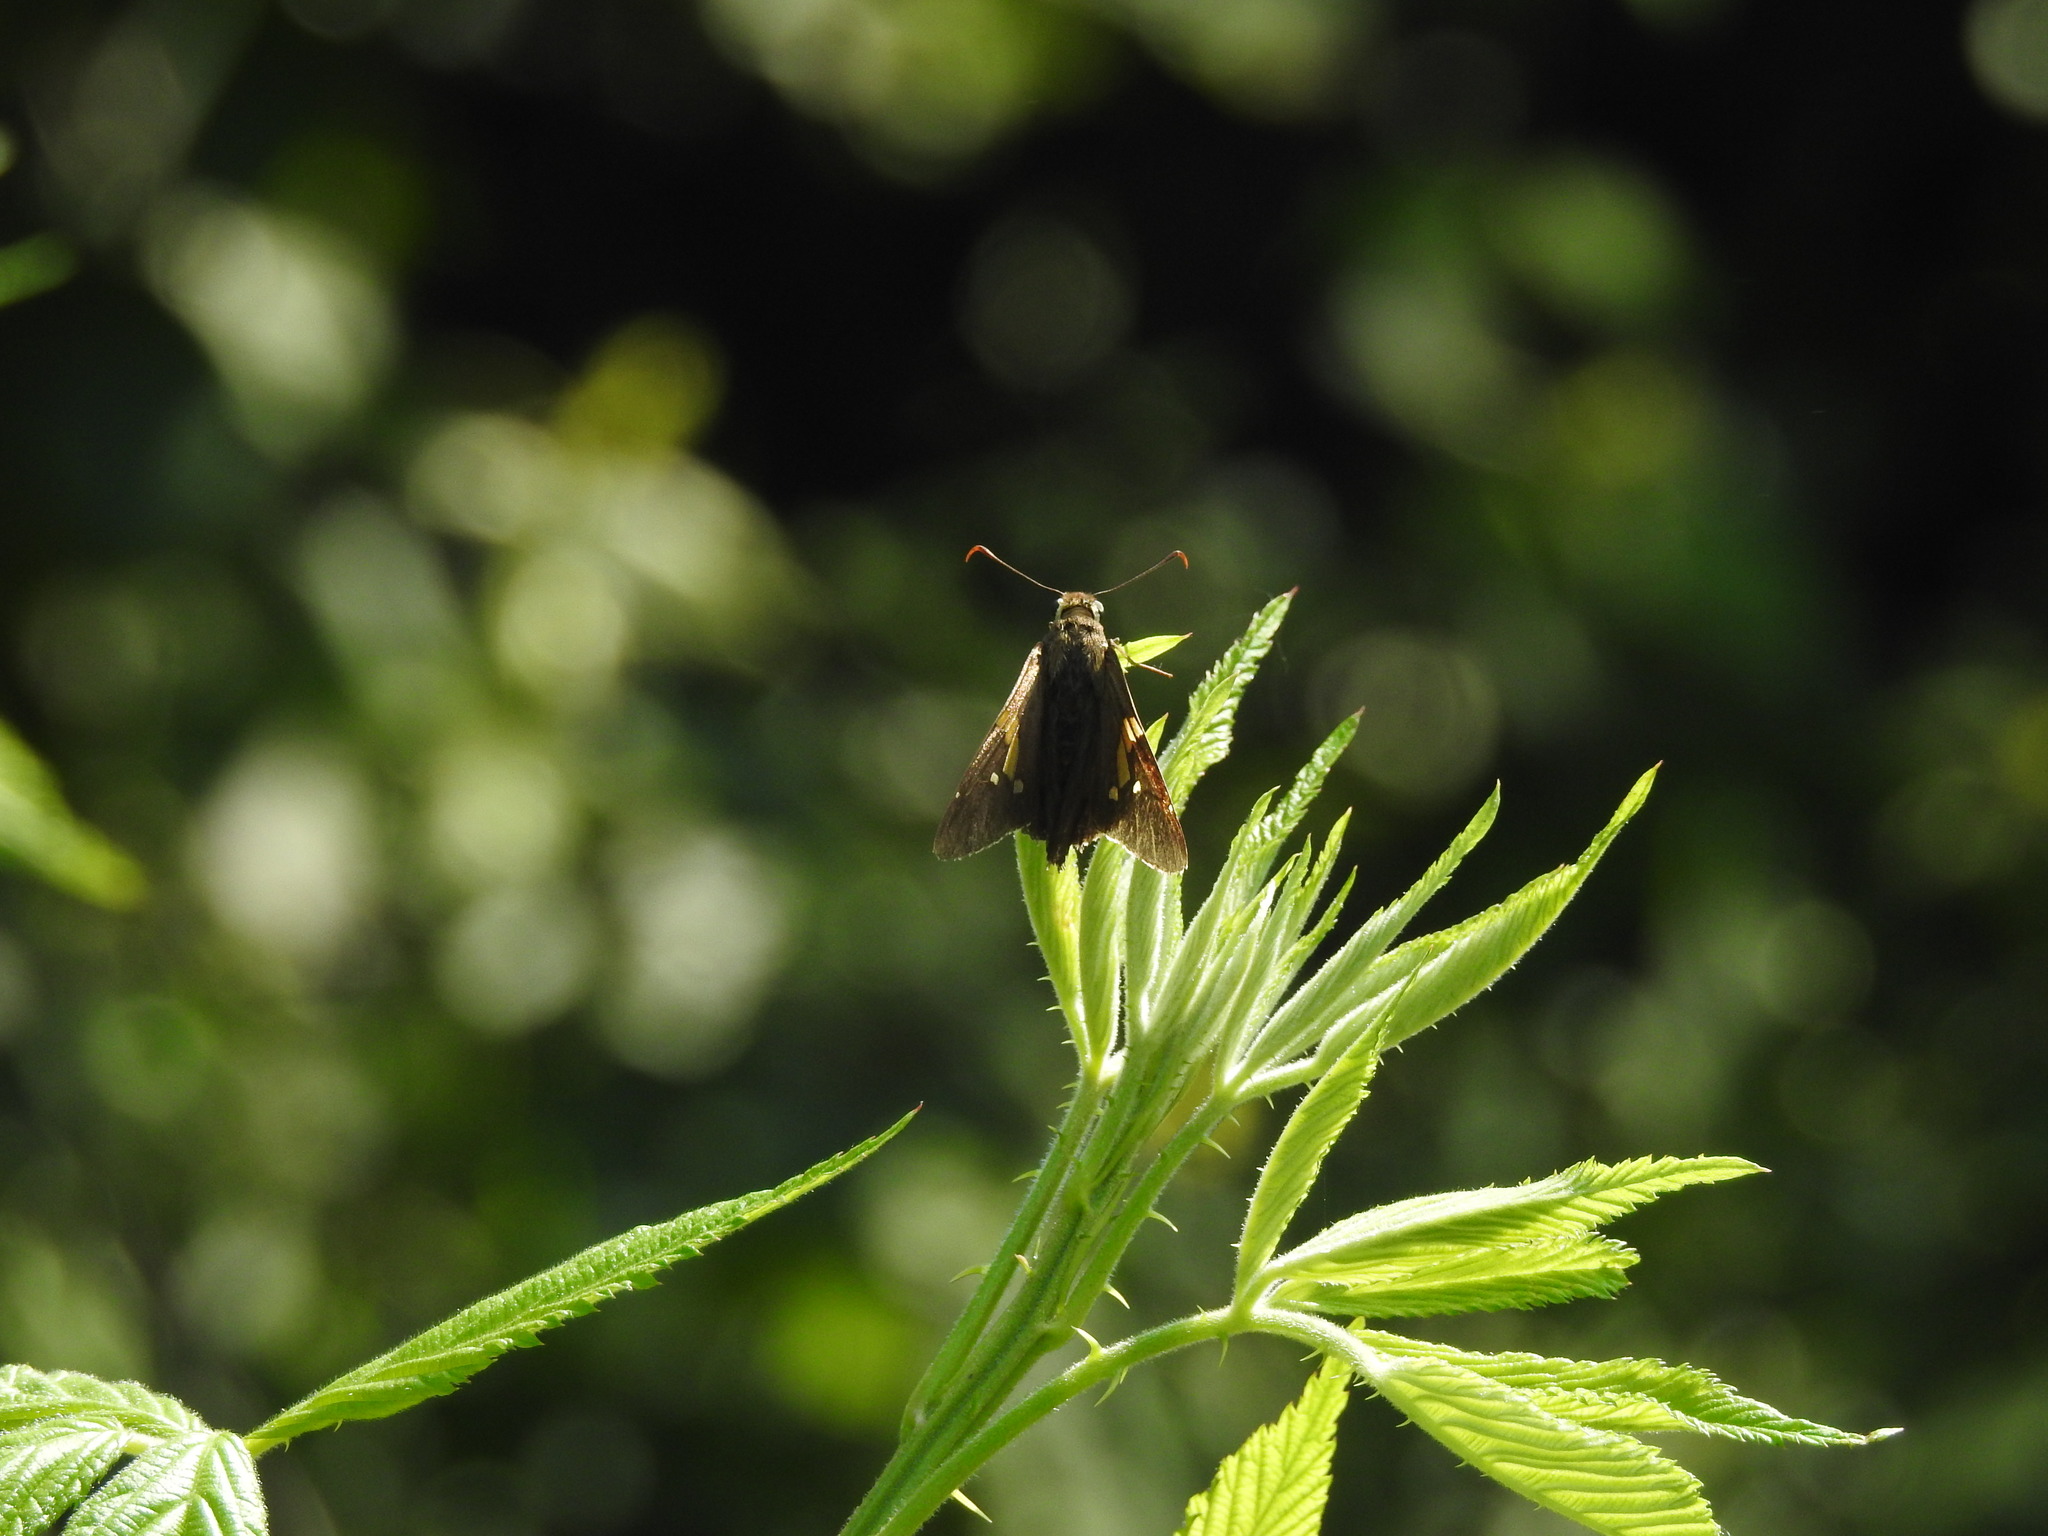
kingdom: Animalia
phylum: Arthropoda
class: Insecta
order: Lepidoptera
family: Hesperiidae
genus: Epargyreus
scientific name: Epargyreus clarus
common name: Silver-spotted skipper
